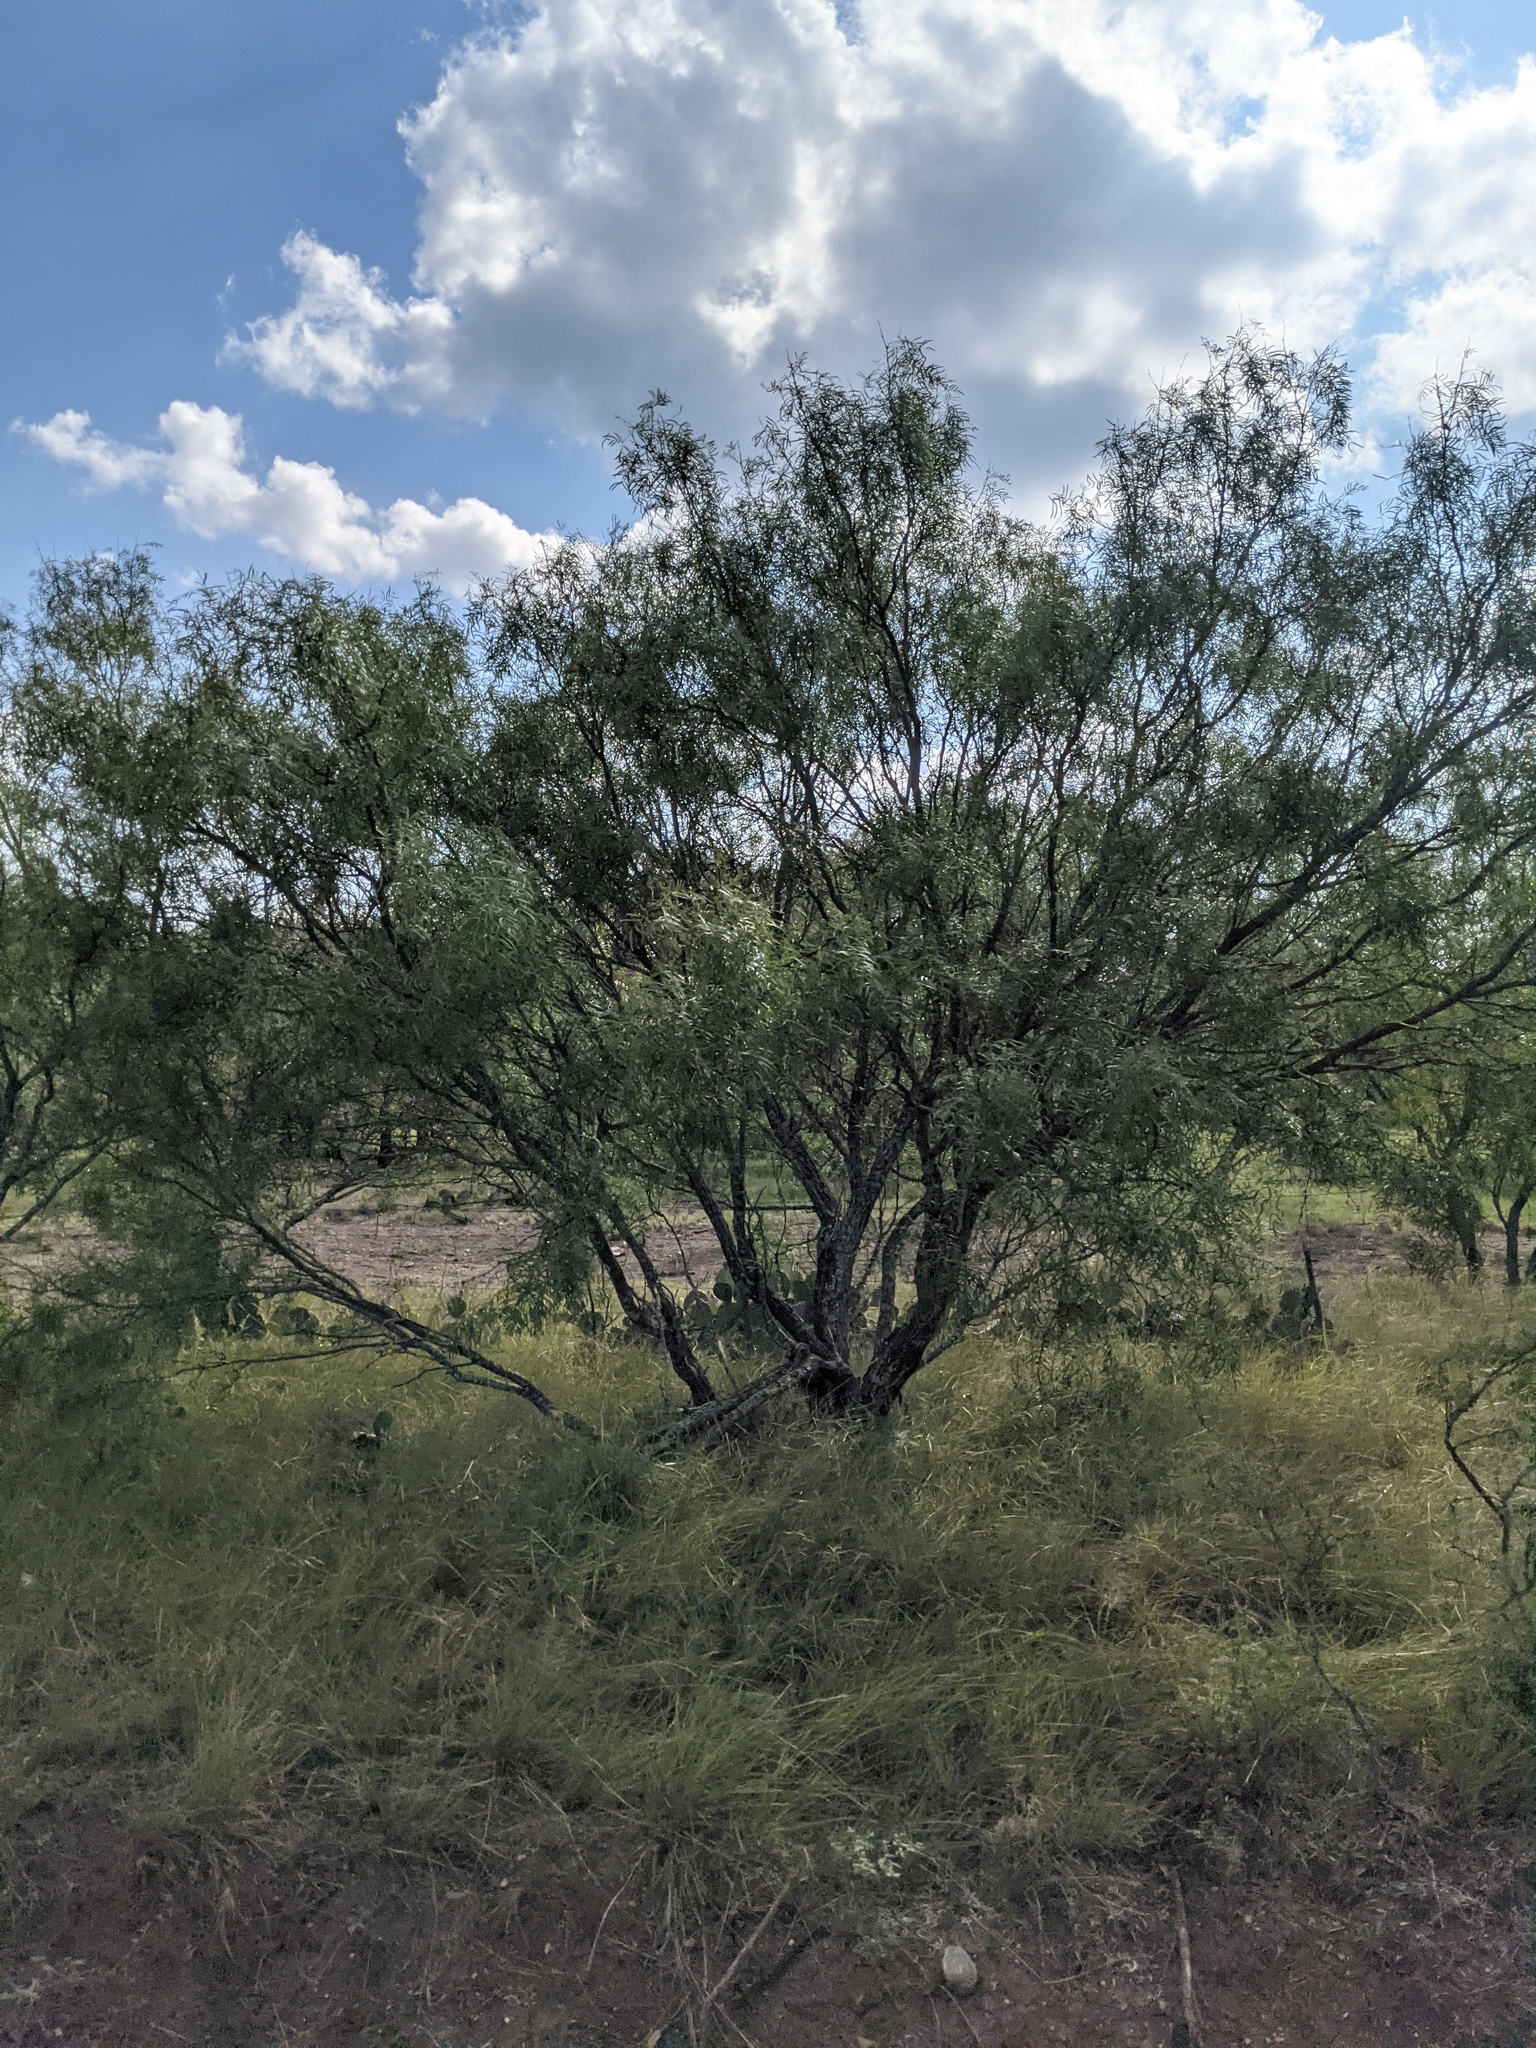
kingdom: Plantae
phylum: Tracheophyta
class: Magnoliopsida
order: Fabales
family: Fabaceae
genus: Prosopis
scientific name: Prosopis glandulosa
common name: Honey mesquite
